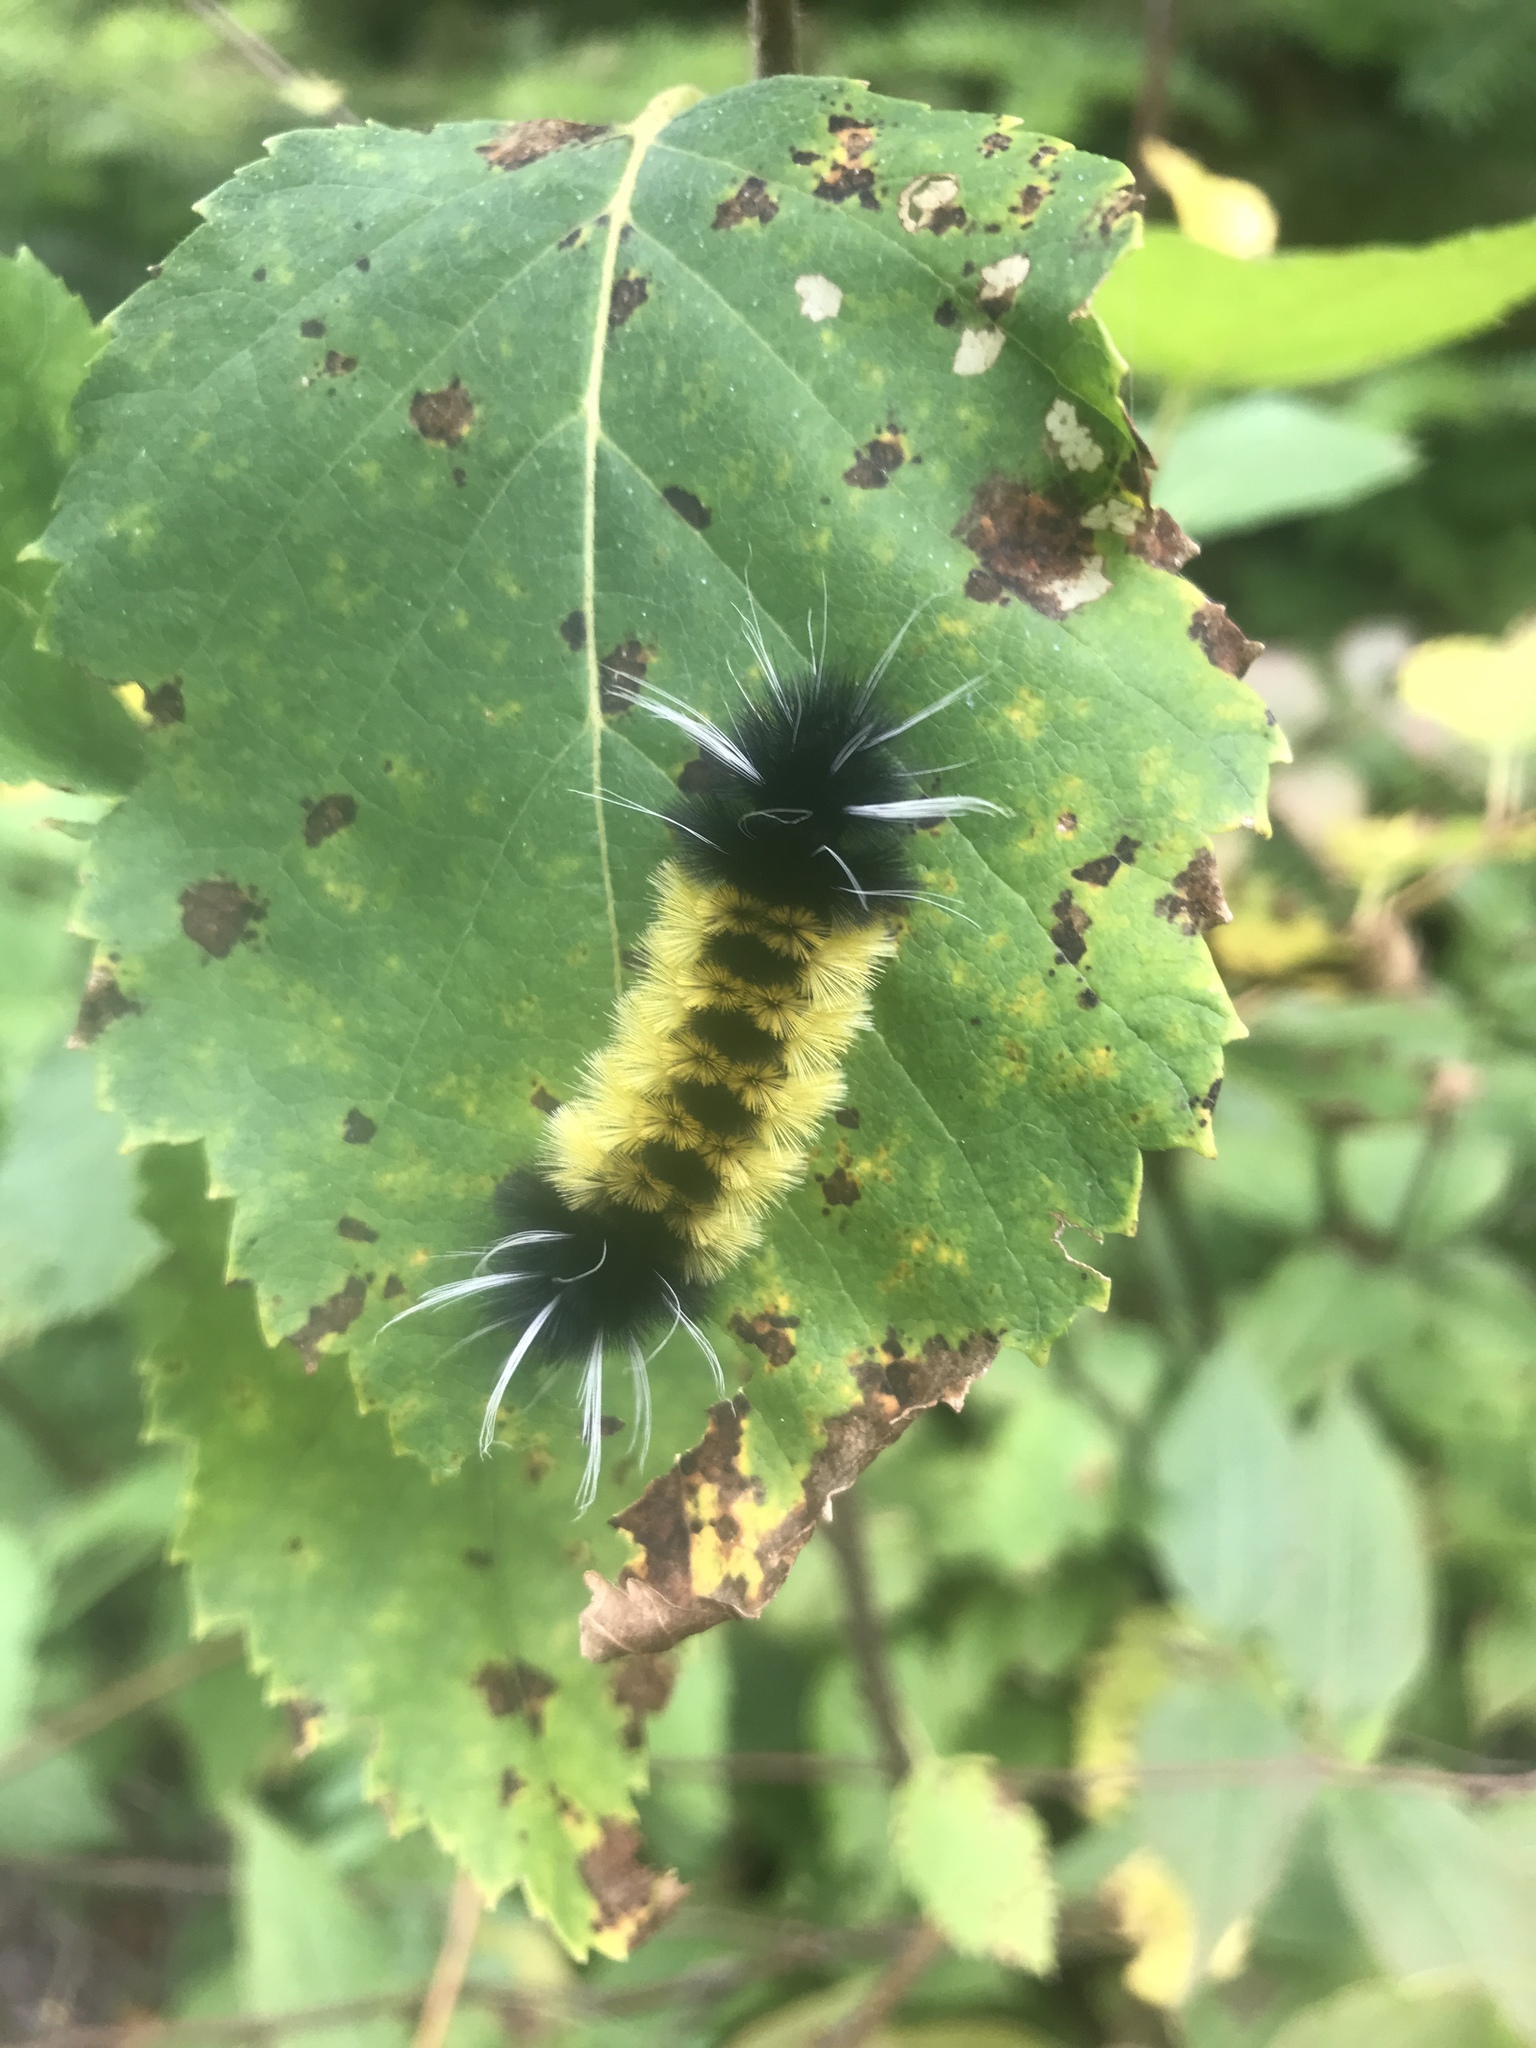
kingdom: Animalia
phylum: Arthropoda
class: Insecta
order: Lepidoptera
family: Erebidae
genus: Lophocampa
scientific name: Lophocampa maculata
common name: Spotted tussock moth
